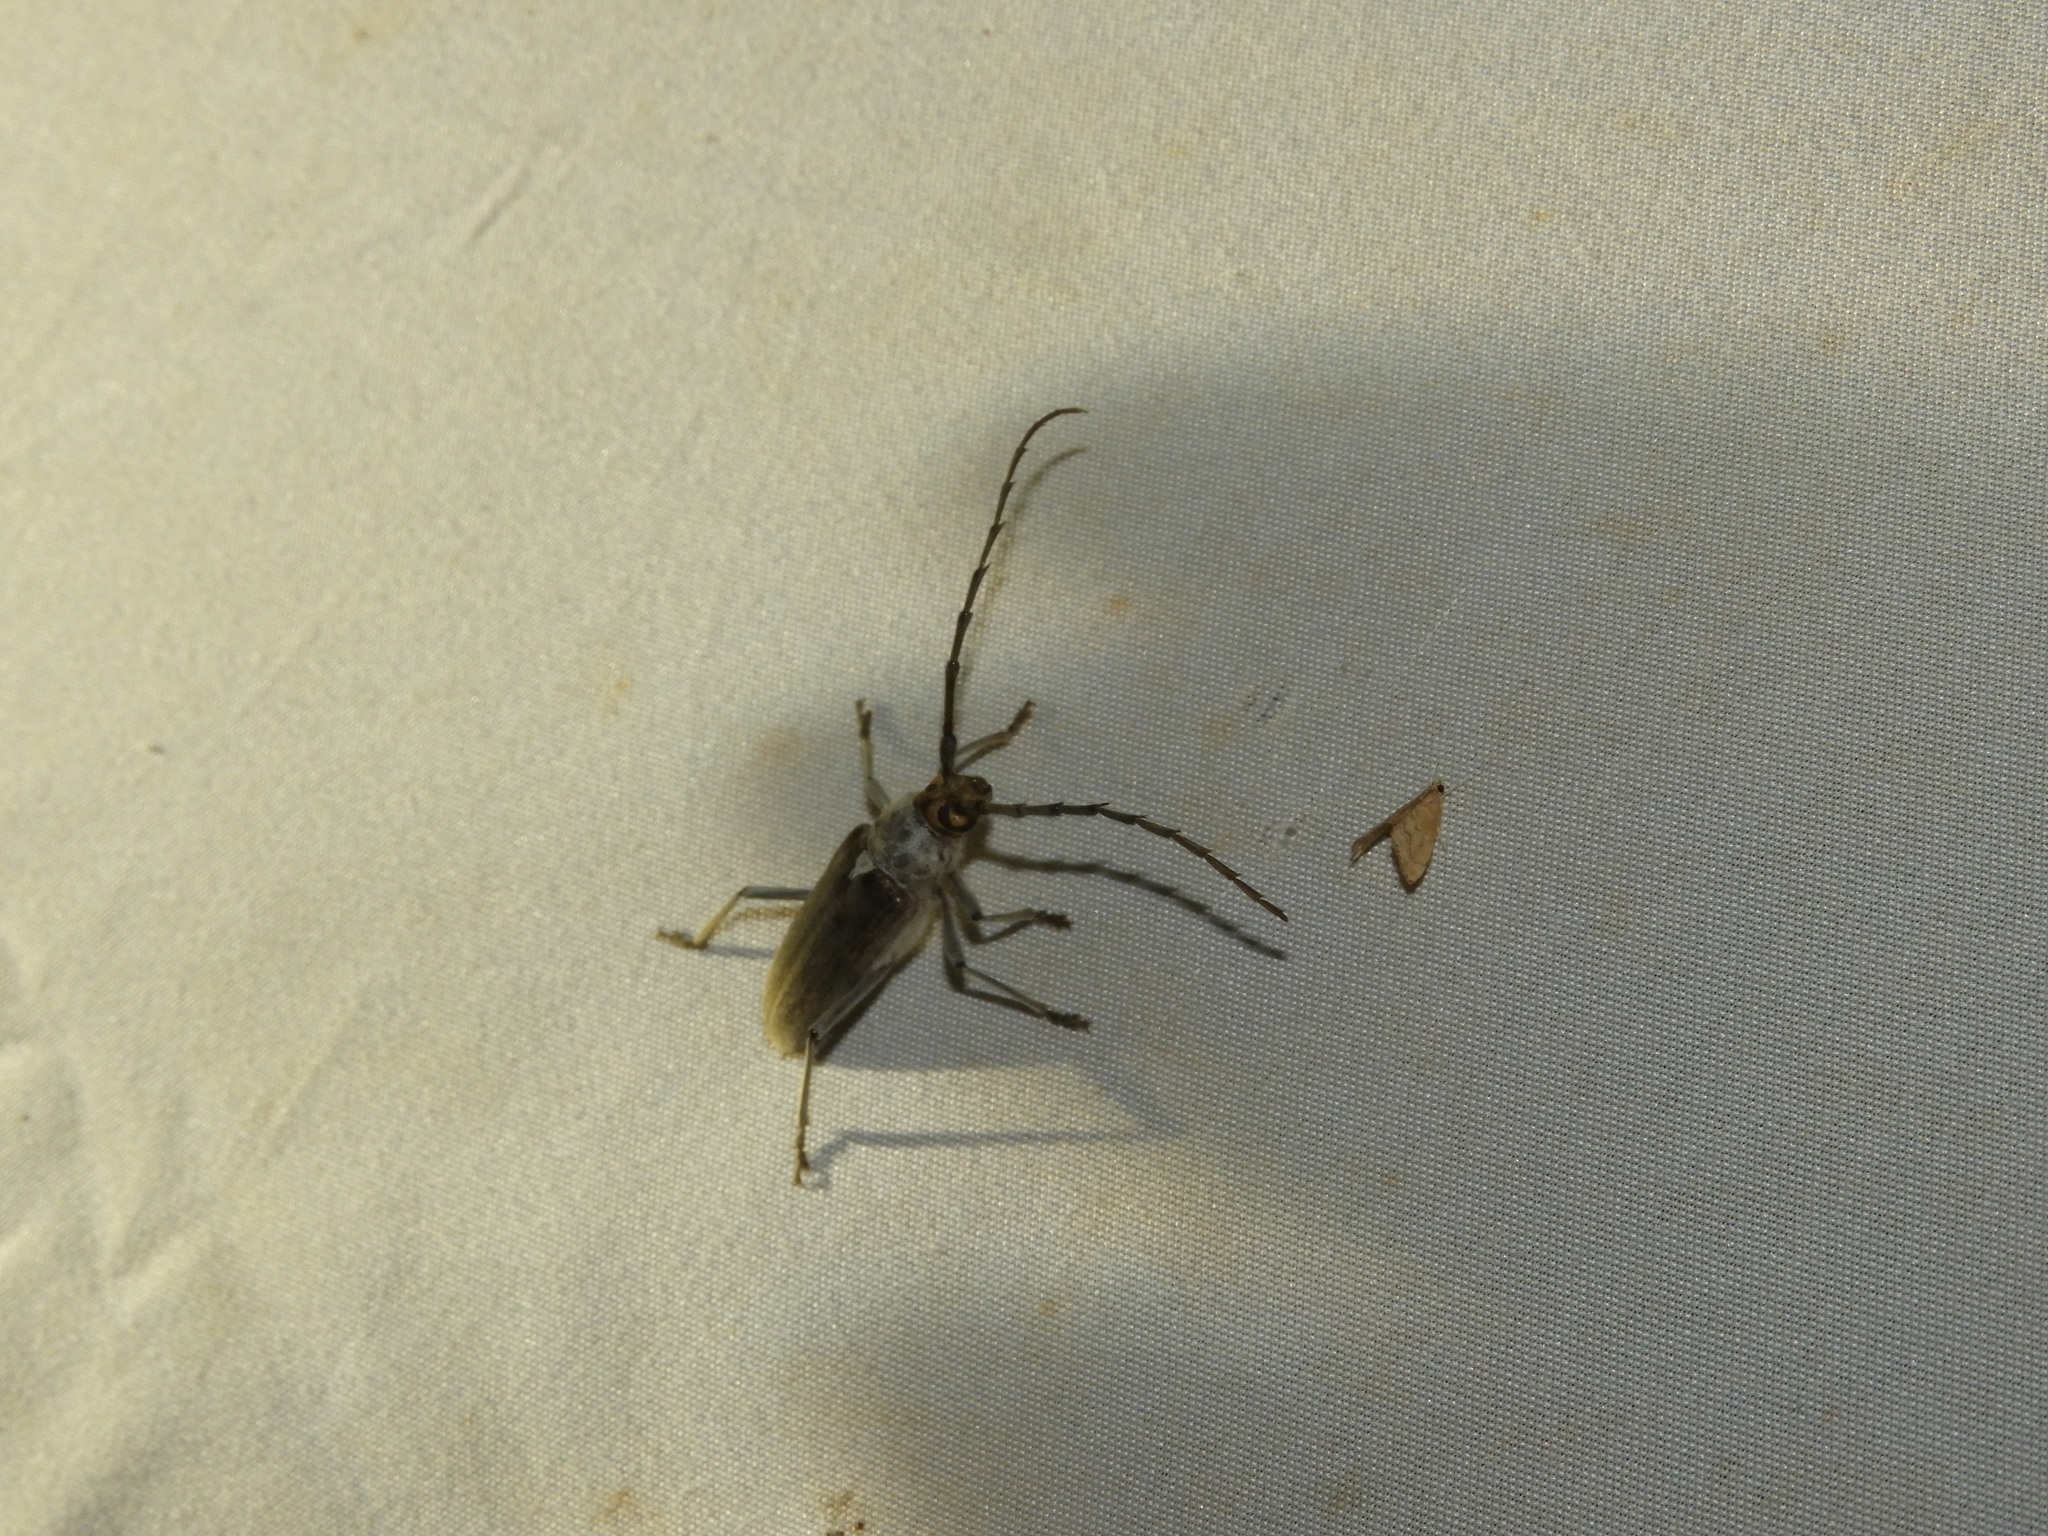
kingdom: Animalia
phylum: Arthropoda
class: Insecta
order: Coleoptera
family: Cerambycidae
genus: Gnaphalodes
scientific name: Gnaphalodes trachyderoides
